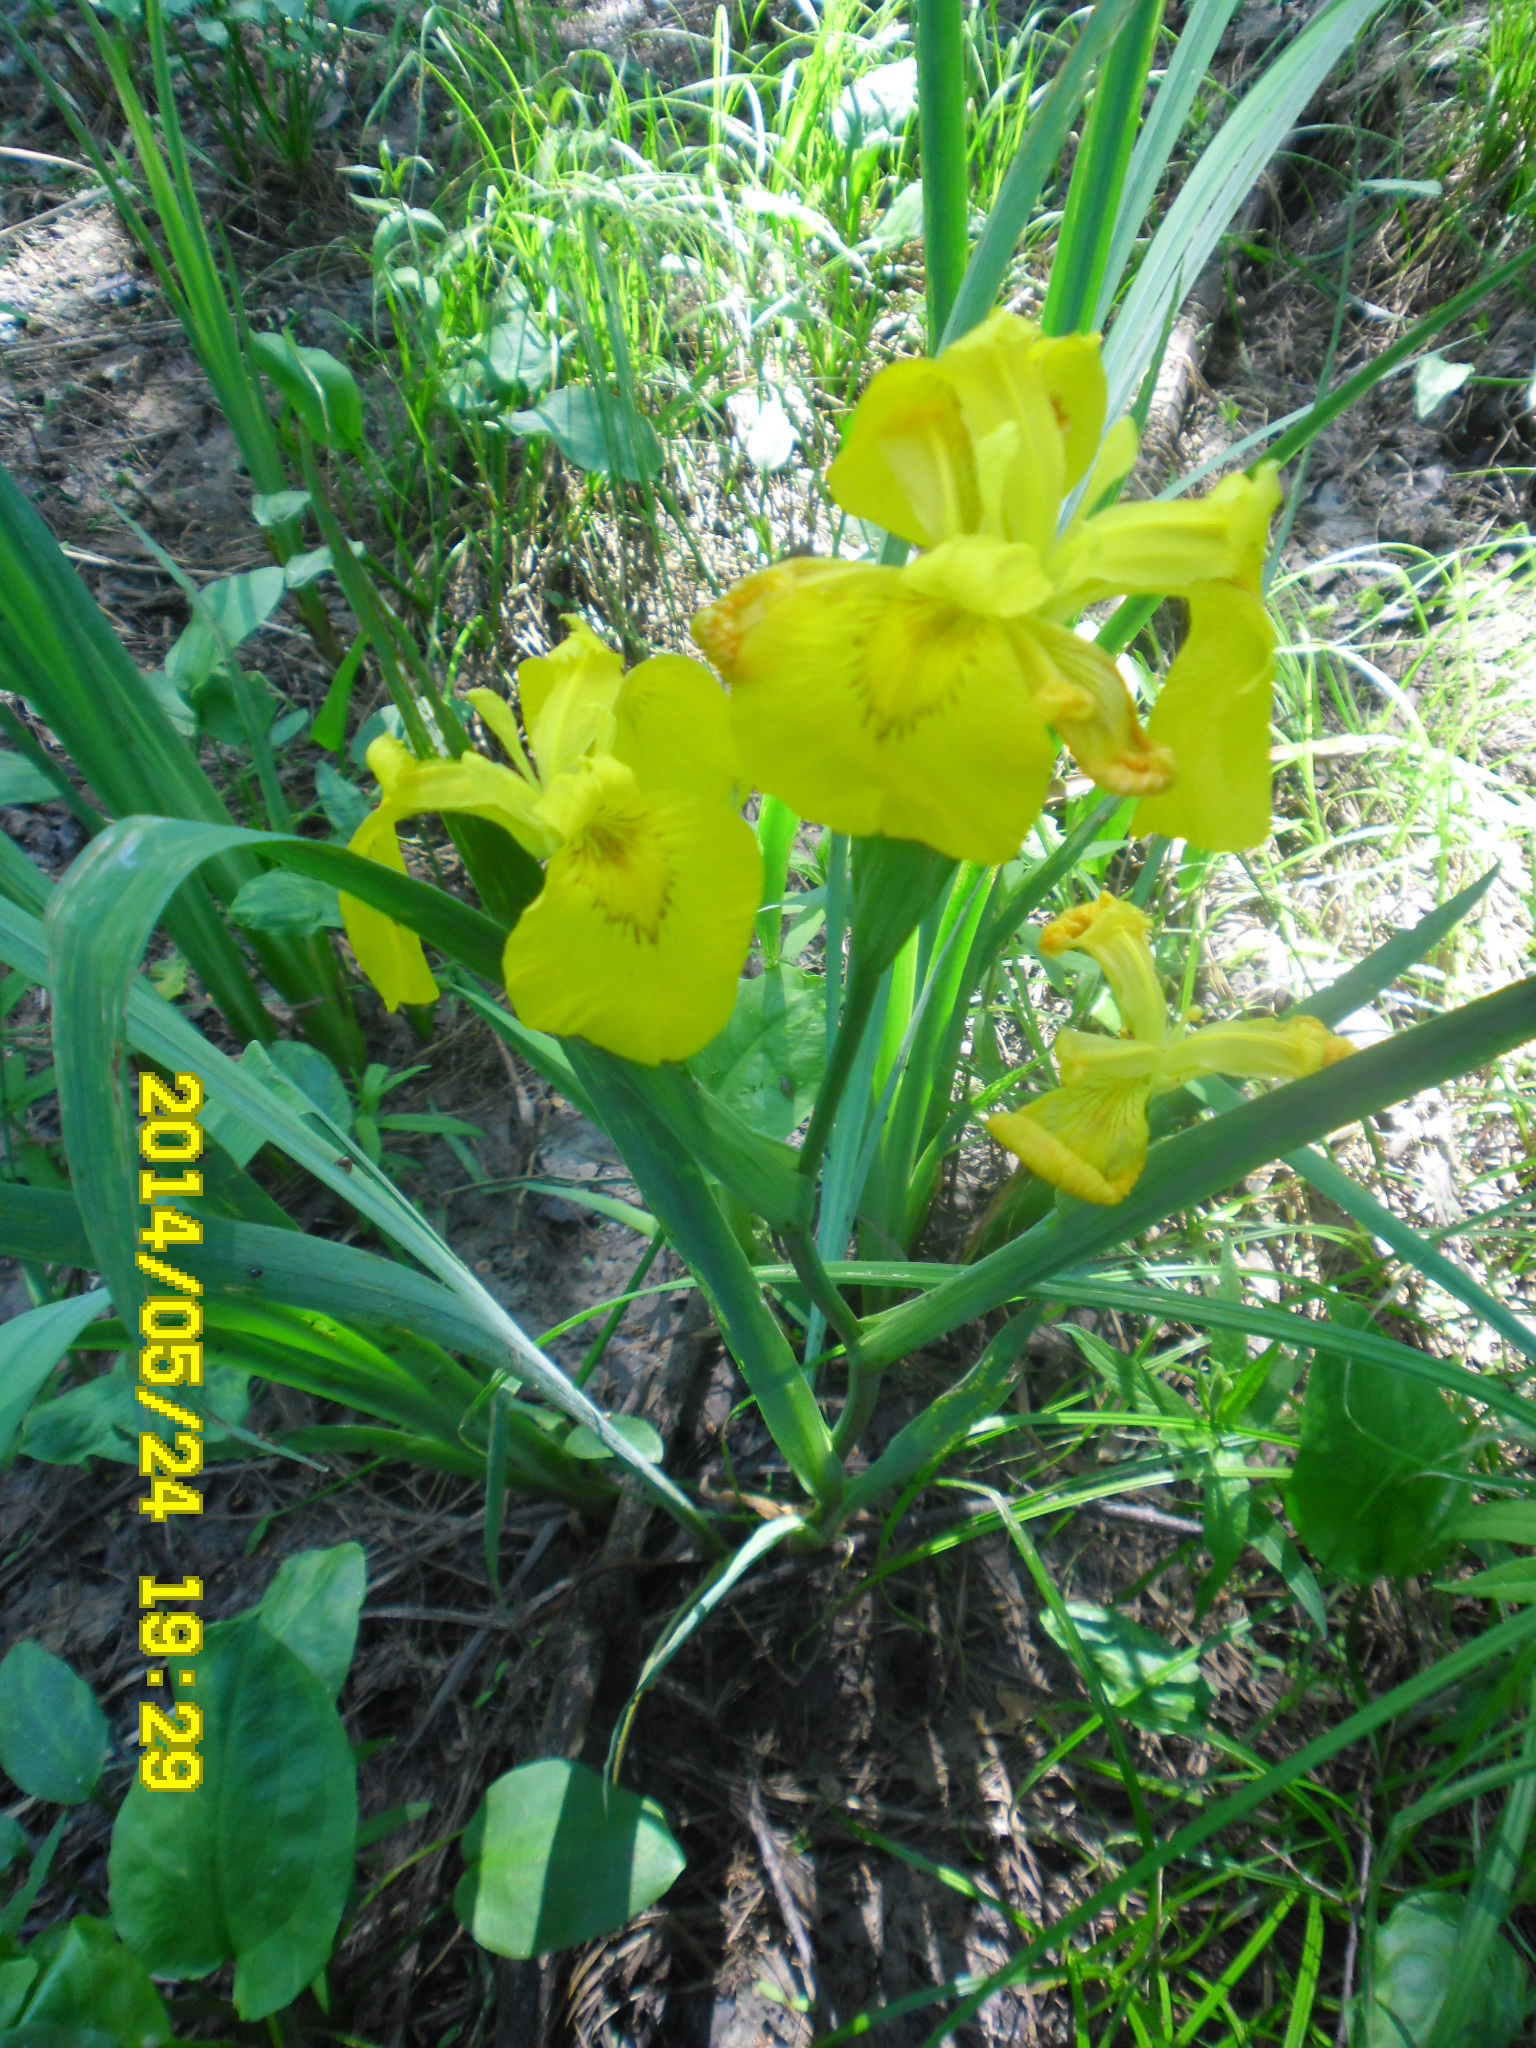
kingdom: Plantae
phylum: Tracheophyta
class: Liliopsida
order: Asparagales
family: Iridaceae
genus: Iris
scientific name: Iris pseudacorus
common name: Yellow flag
